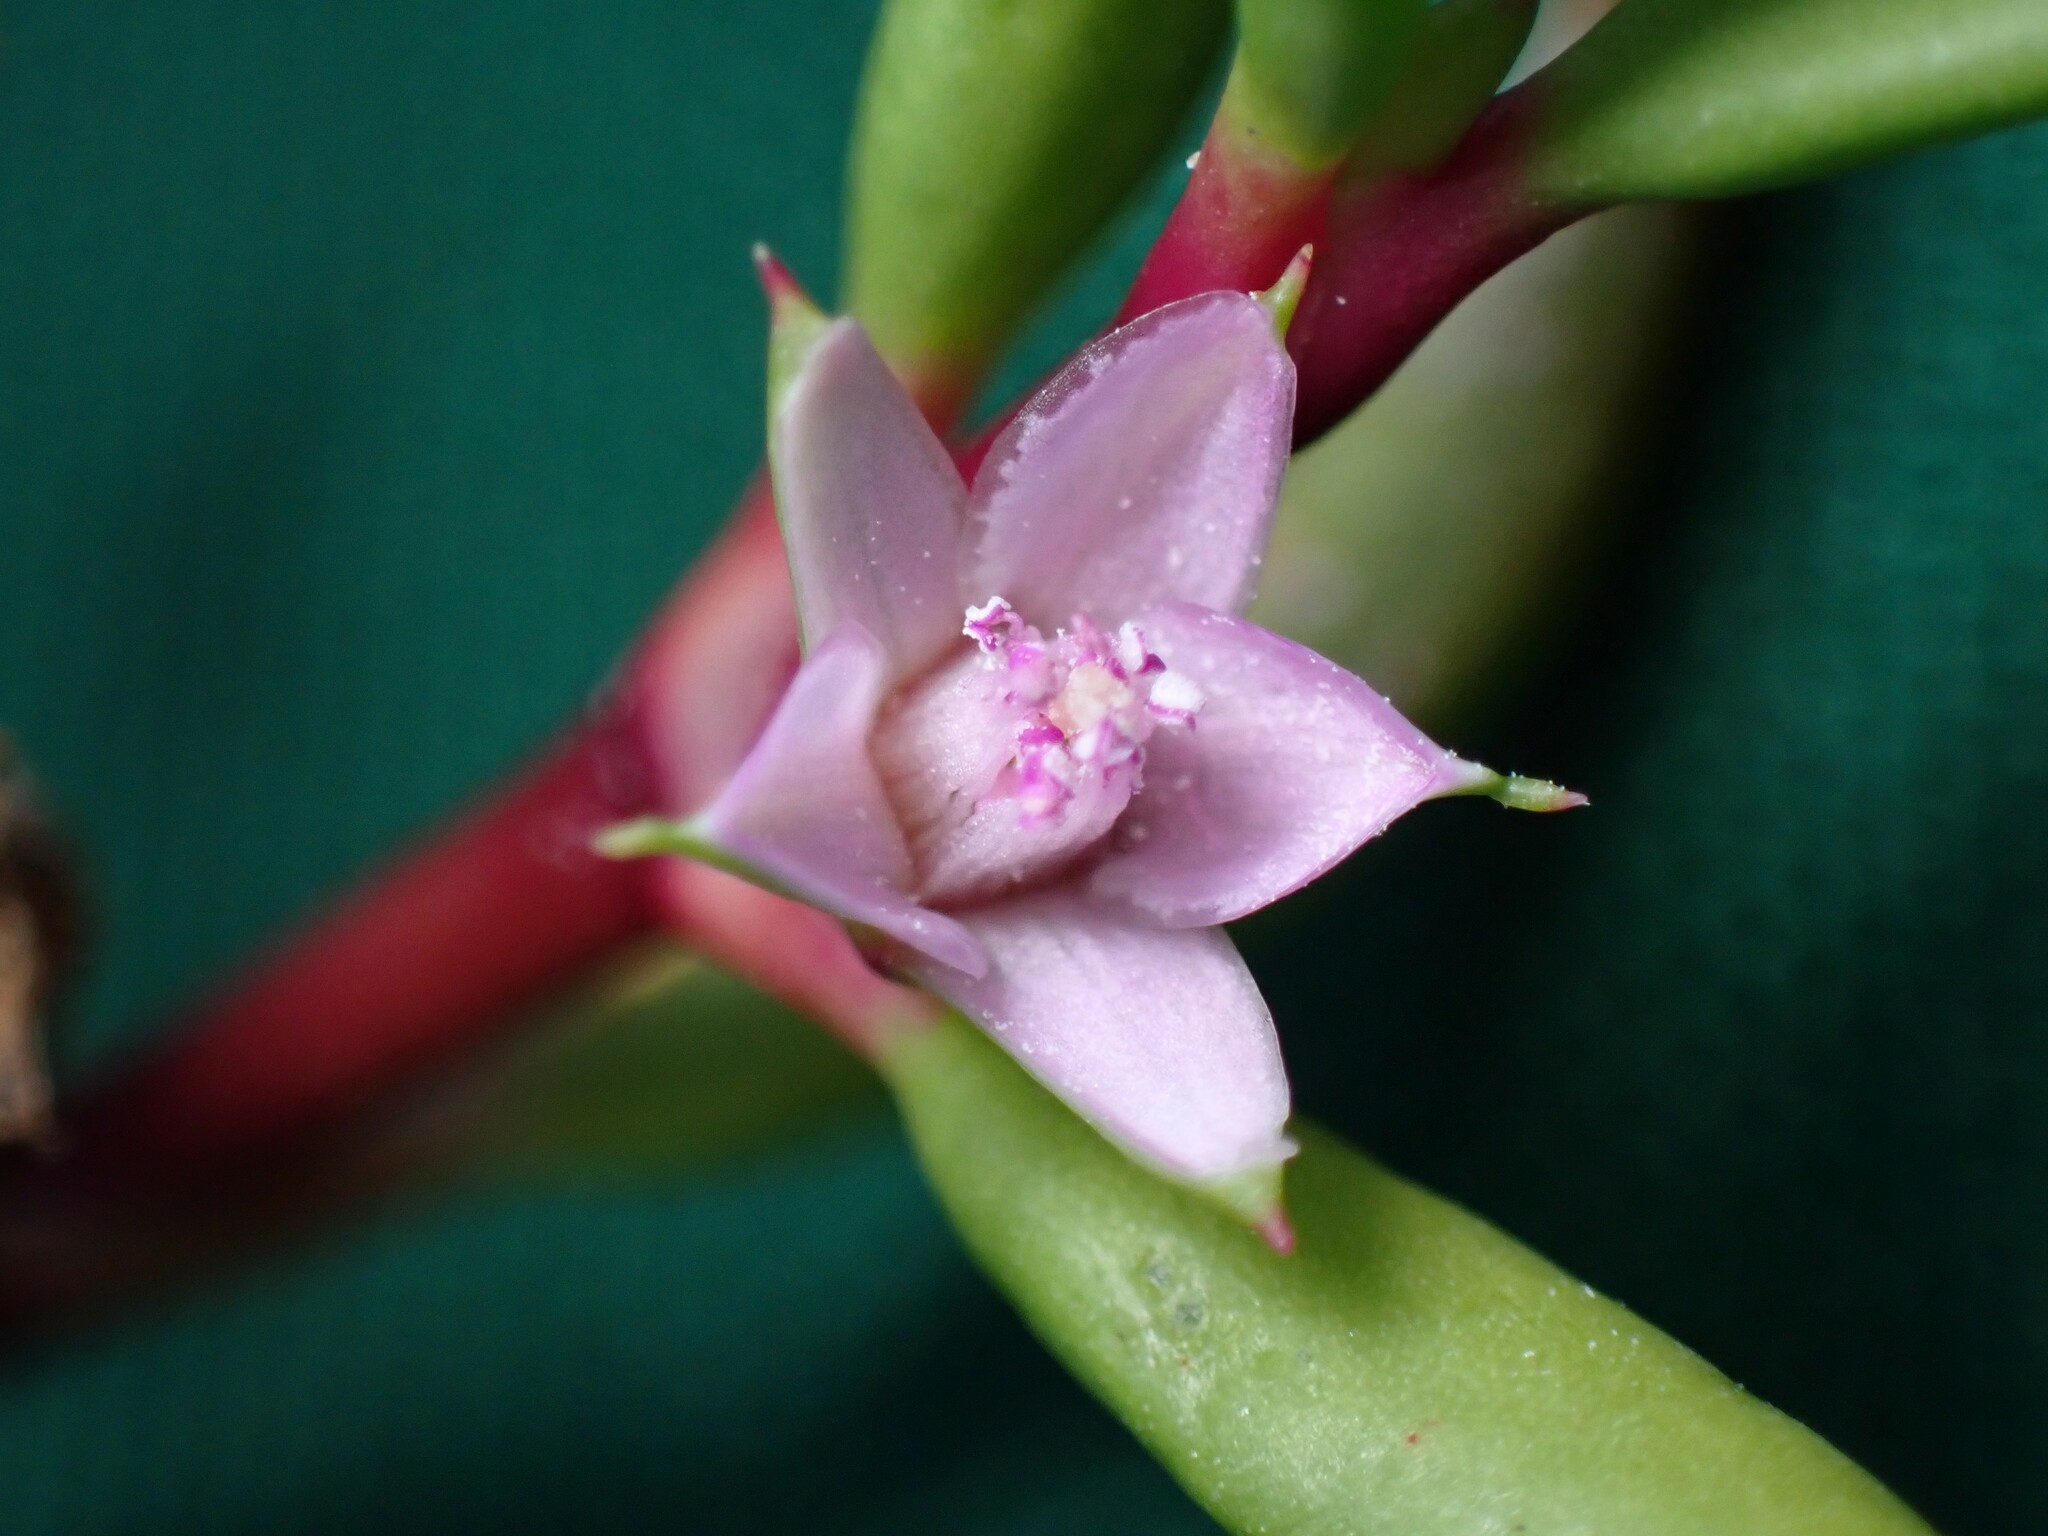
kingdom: Plantae
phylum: Tracheophyta
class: Magnoliopsida
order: Caryophyllales
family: Aizoaceae
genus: Sesuvium
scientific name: Sesuvium portulacastrum
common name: Sea-purslane
